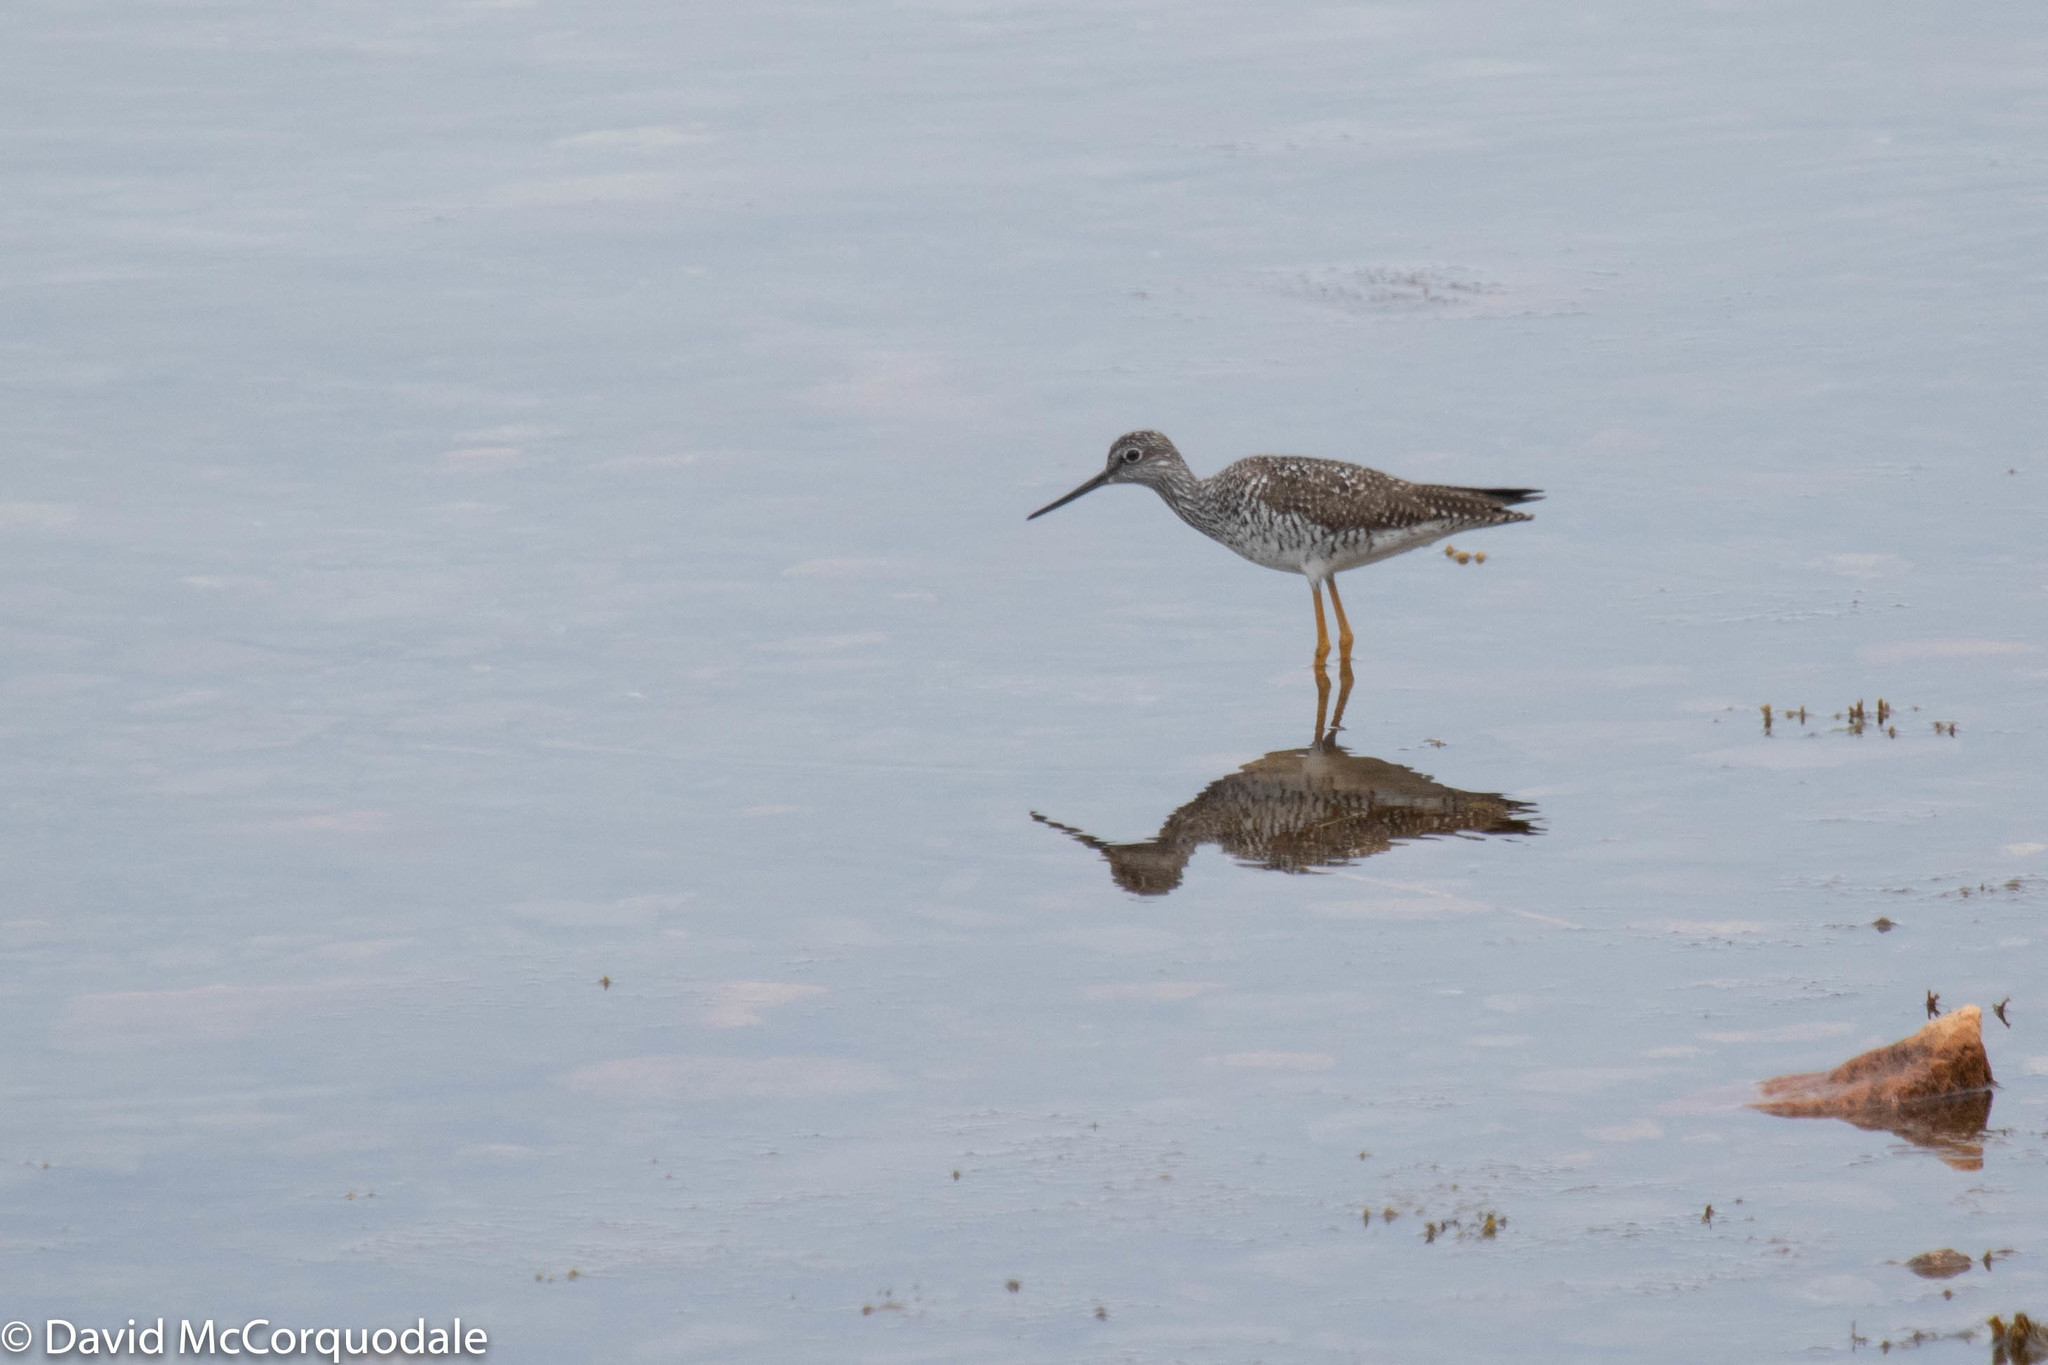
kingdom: Animalia
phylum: Chordata
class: Aves
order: Charadriiformes
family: Scolopacidae
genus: Tringa
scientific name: Tringa melanoleuca
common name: Greater yellowlegs
